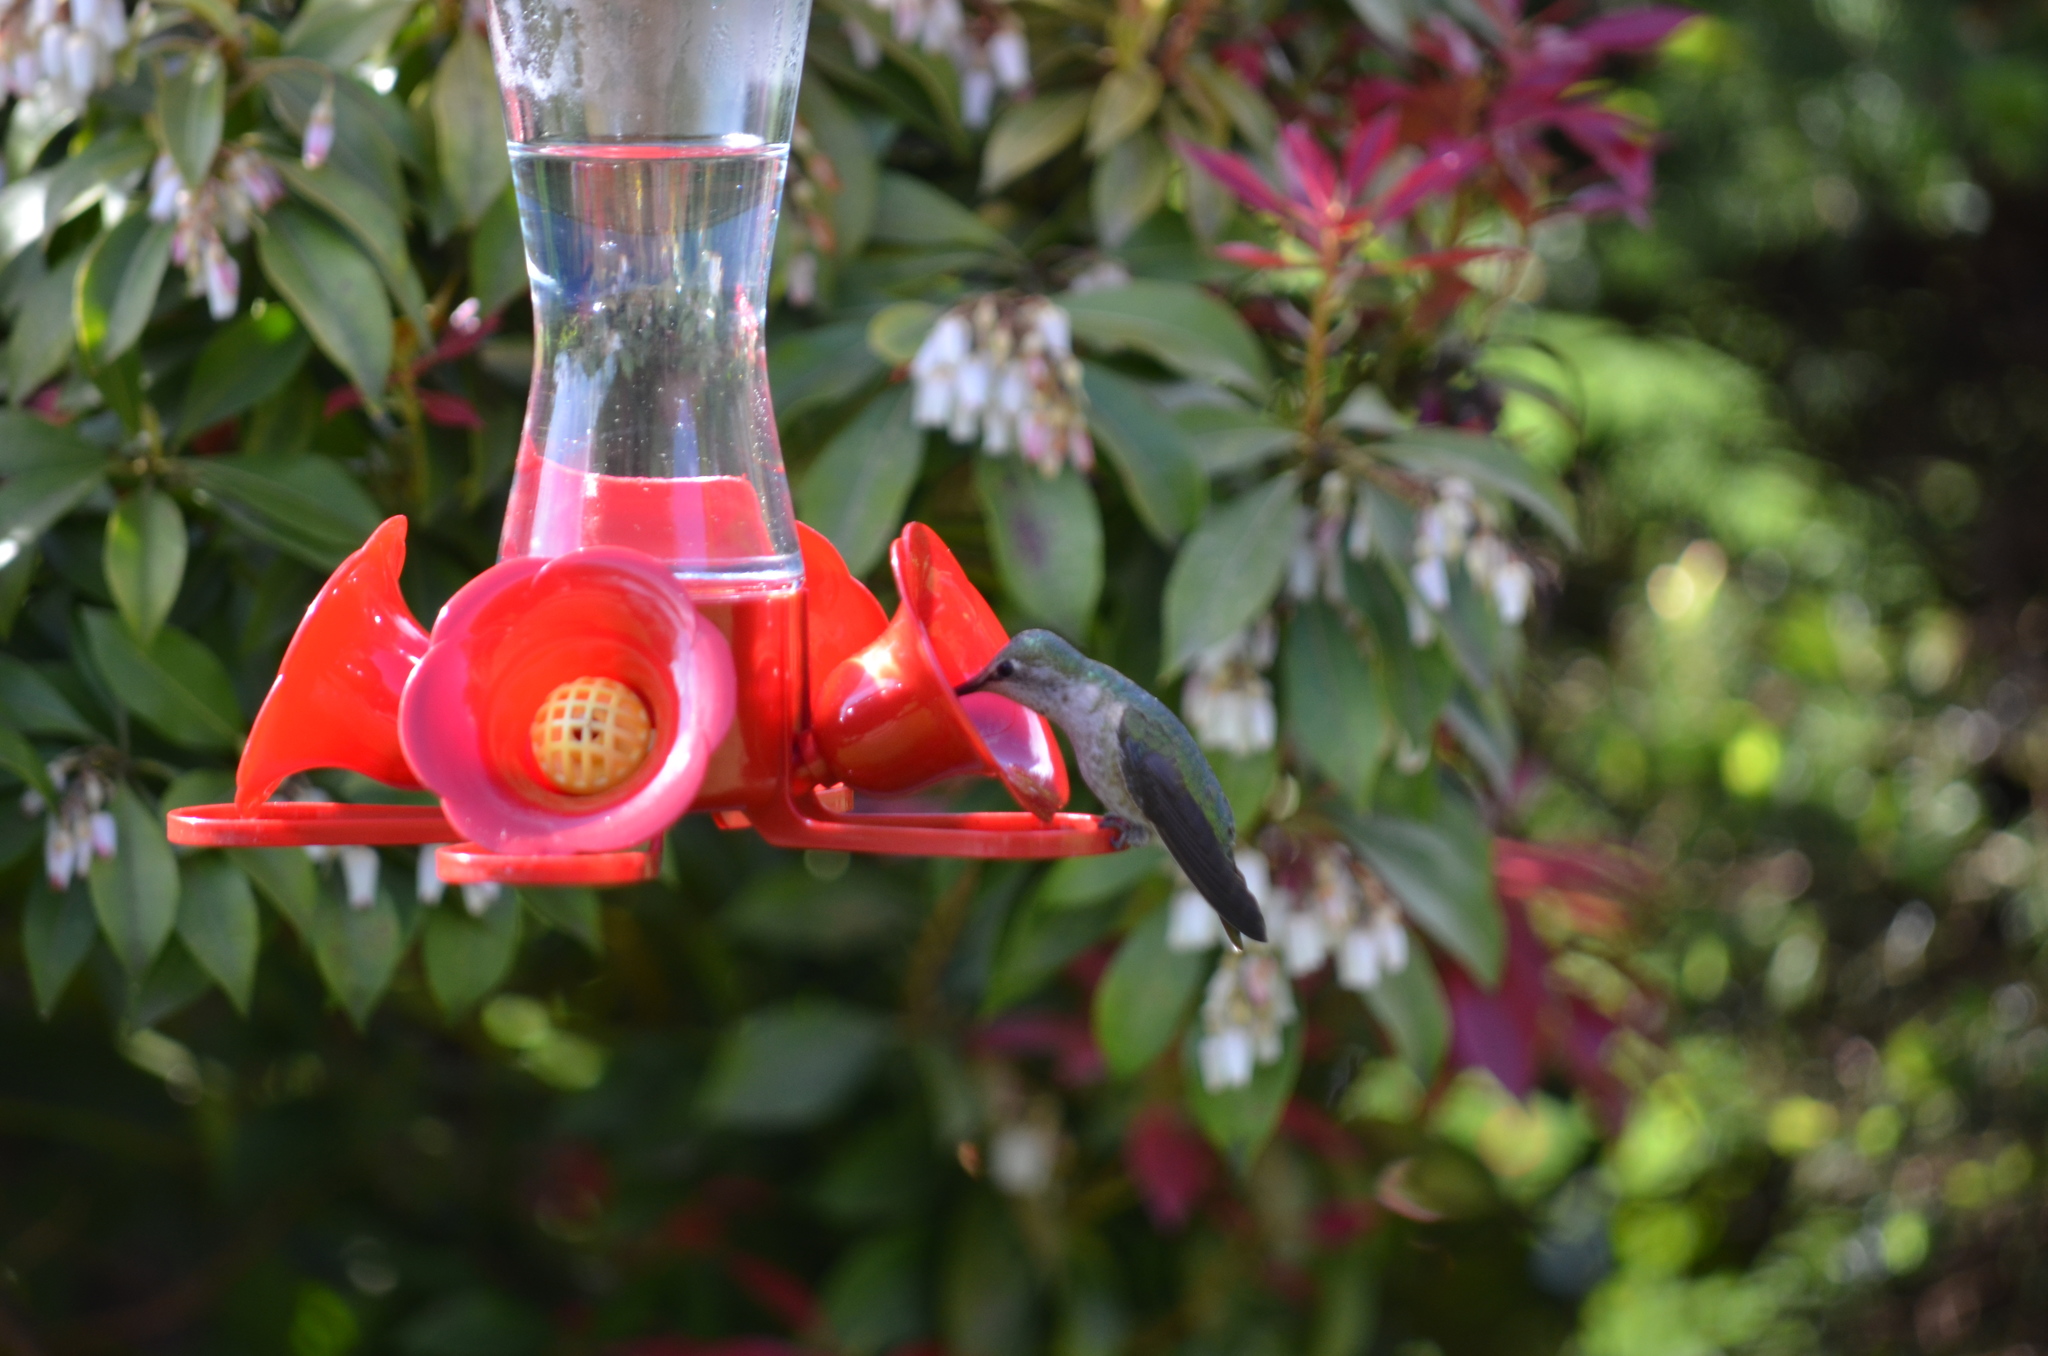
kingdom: Animalia
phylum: Chordata
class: Aves
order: Apodiformes
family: Trochilidae
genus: Calypte
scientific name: Calypte anna
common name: Anna's hummingbird
